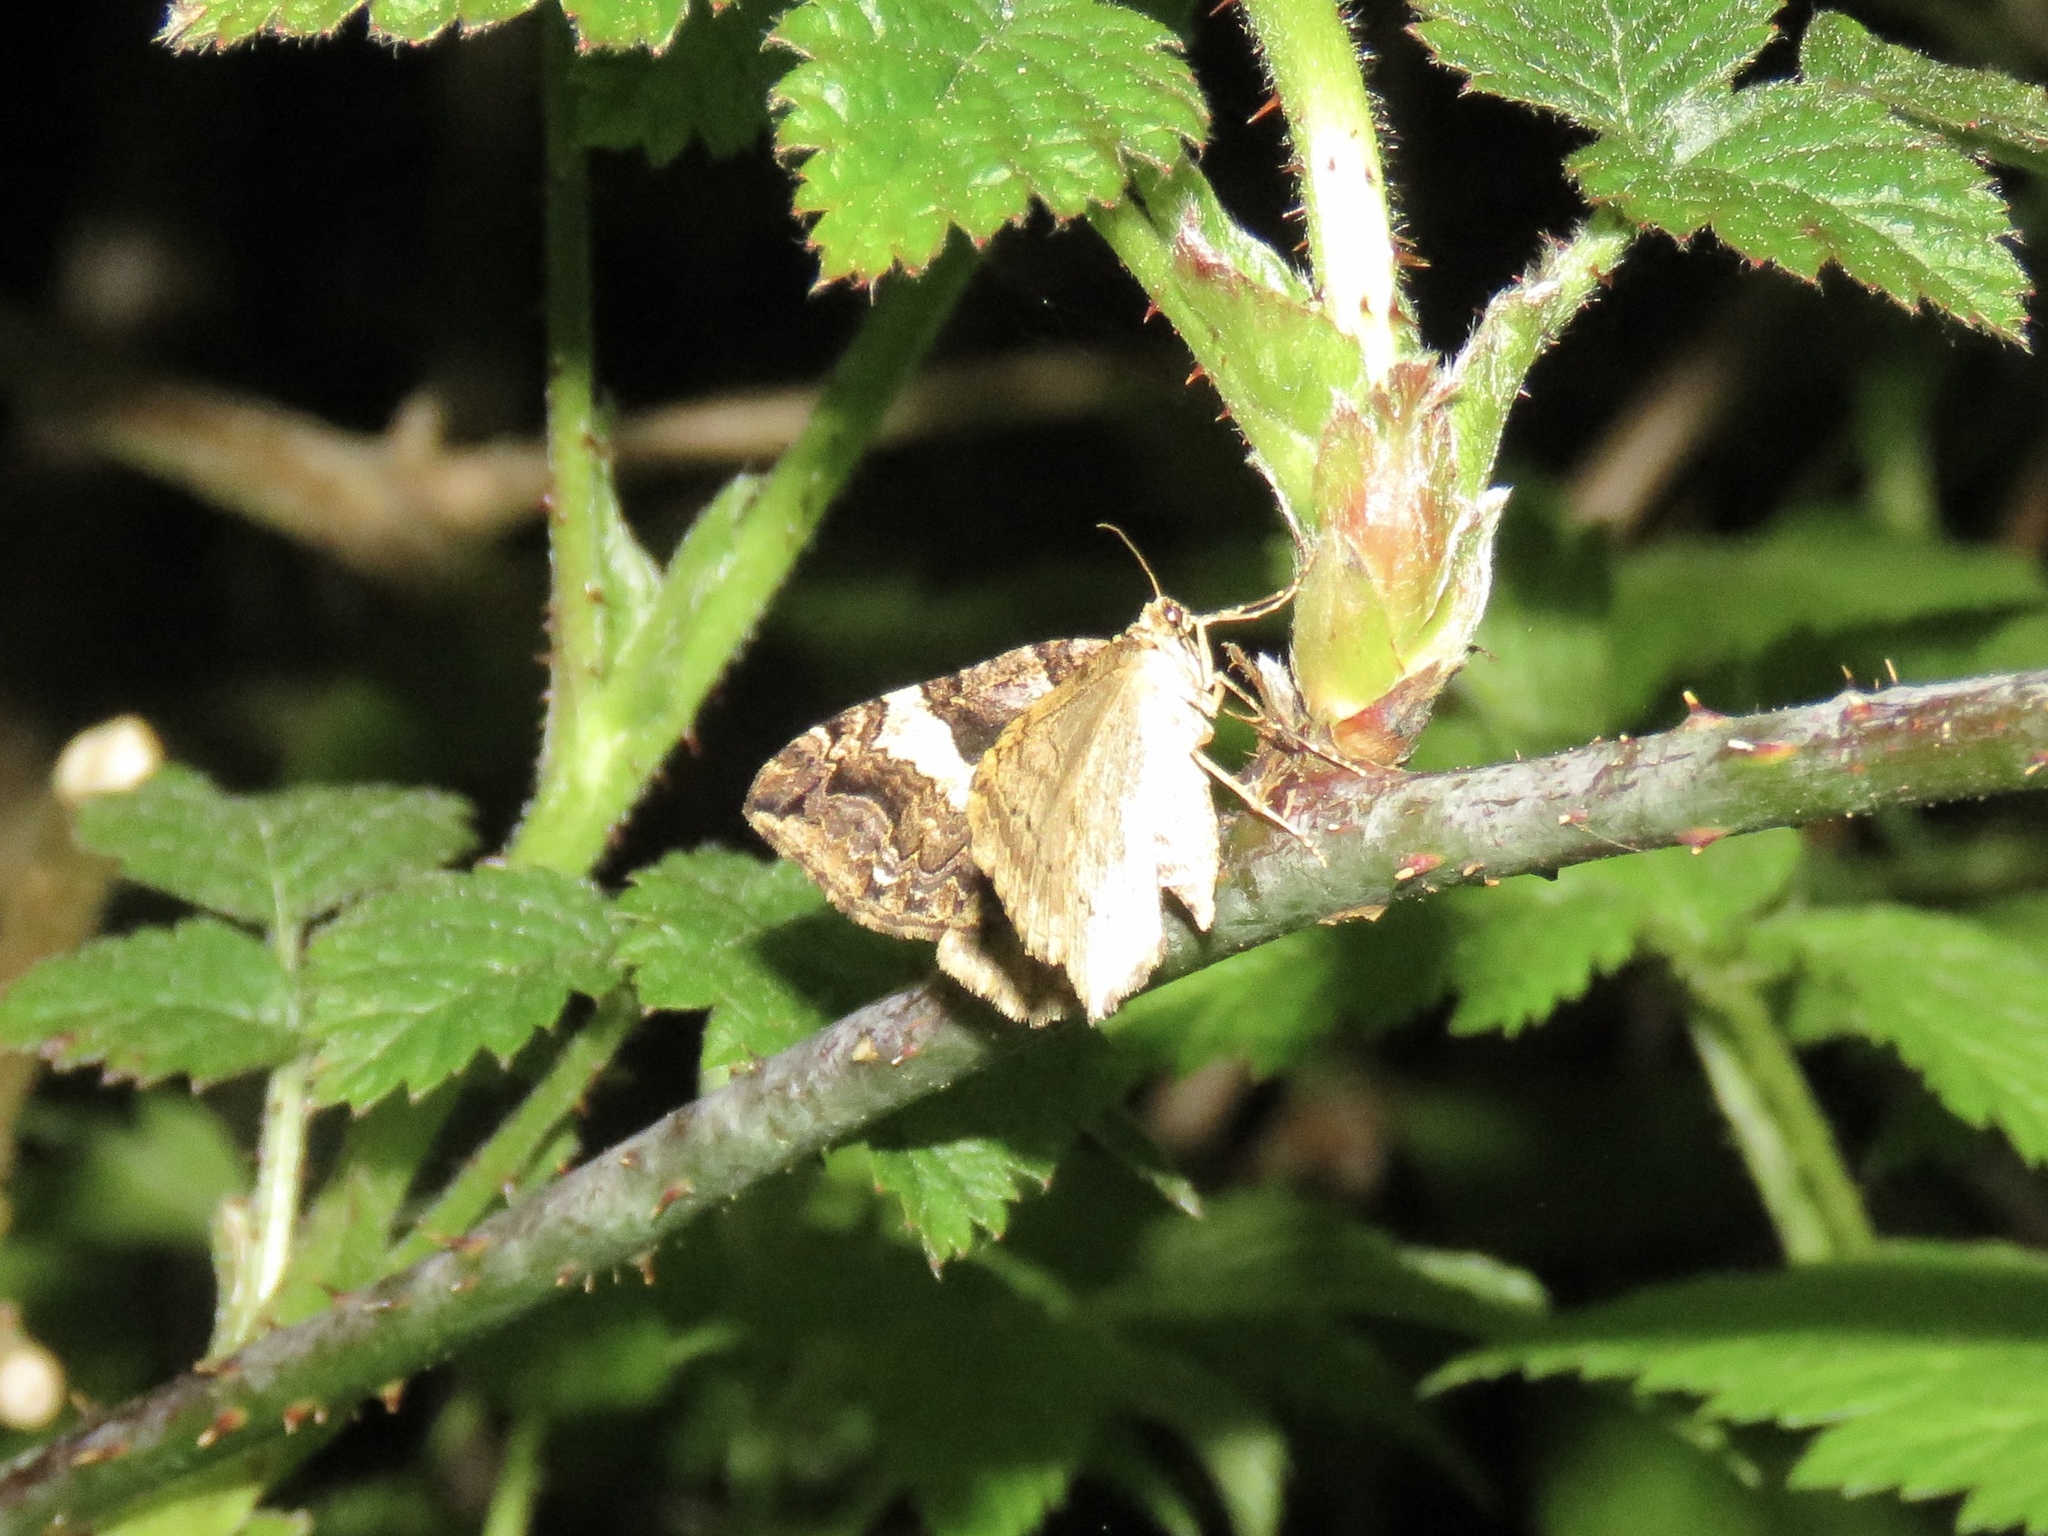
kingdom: Animalia
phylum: Arthropoda
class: Insecta
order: Lepidoptera
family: Geometridae
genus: Anticlea
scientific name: Anticlea vasiliata
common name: Variable carpet
